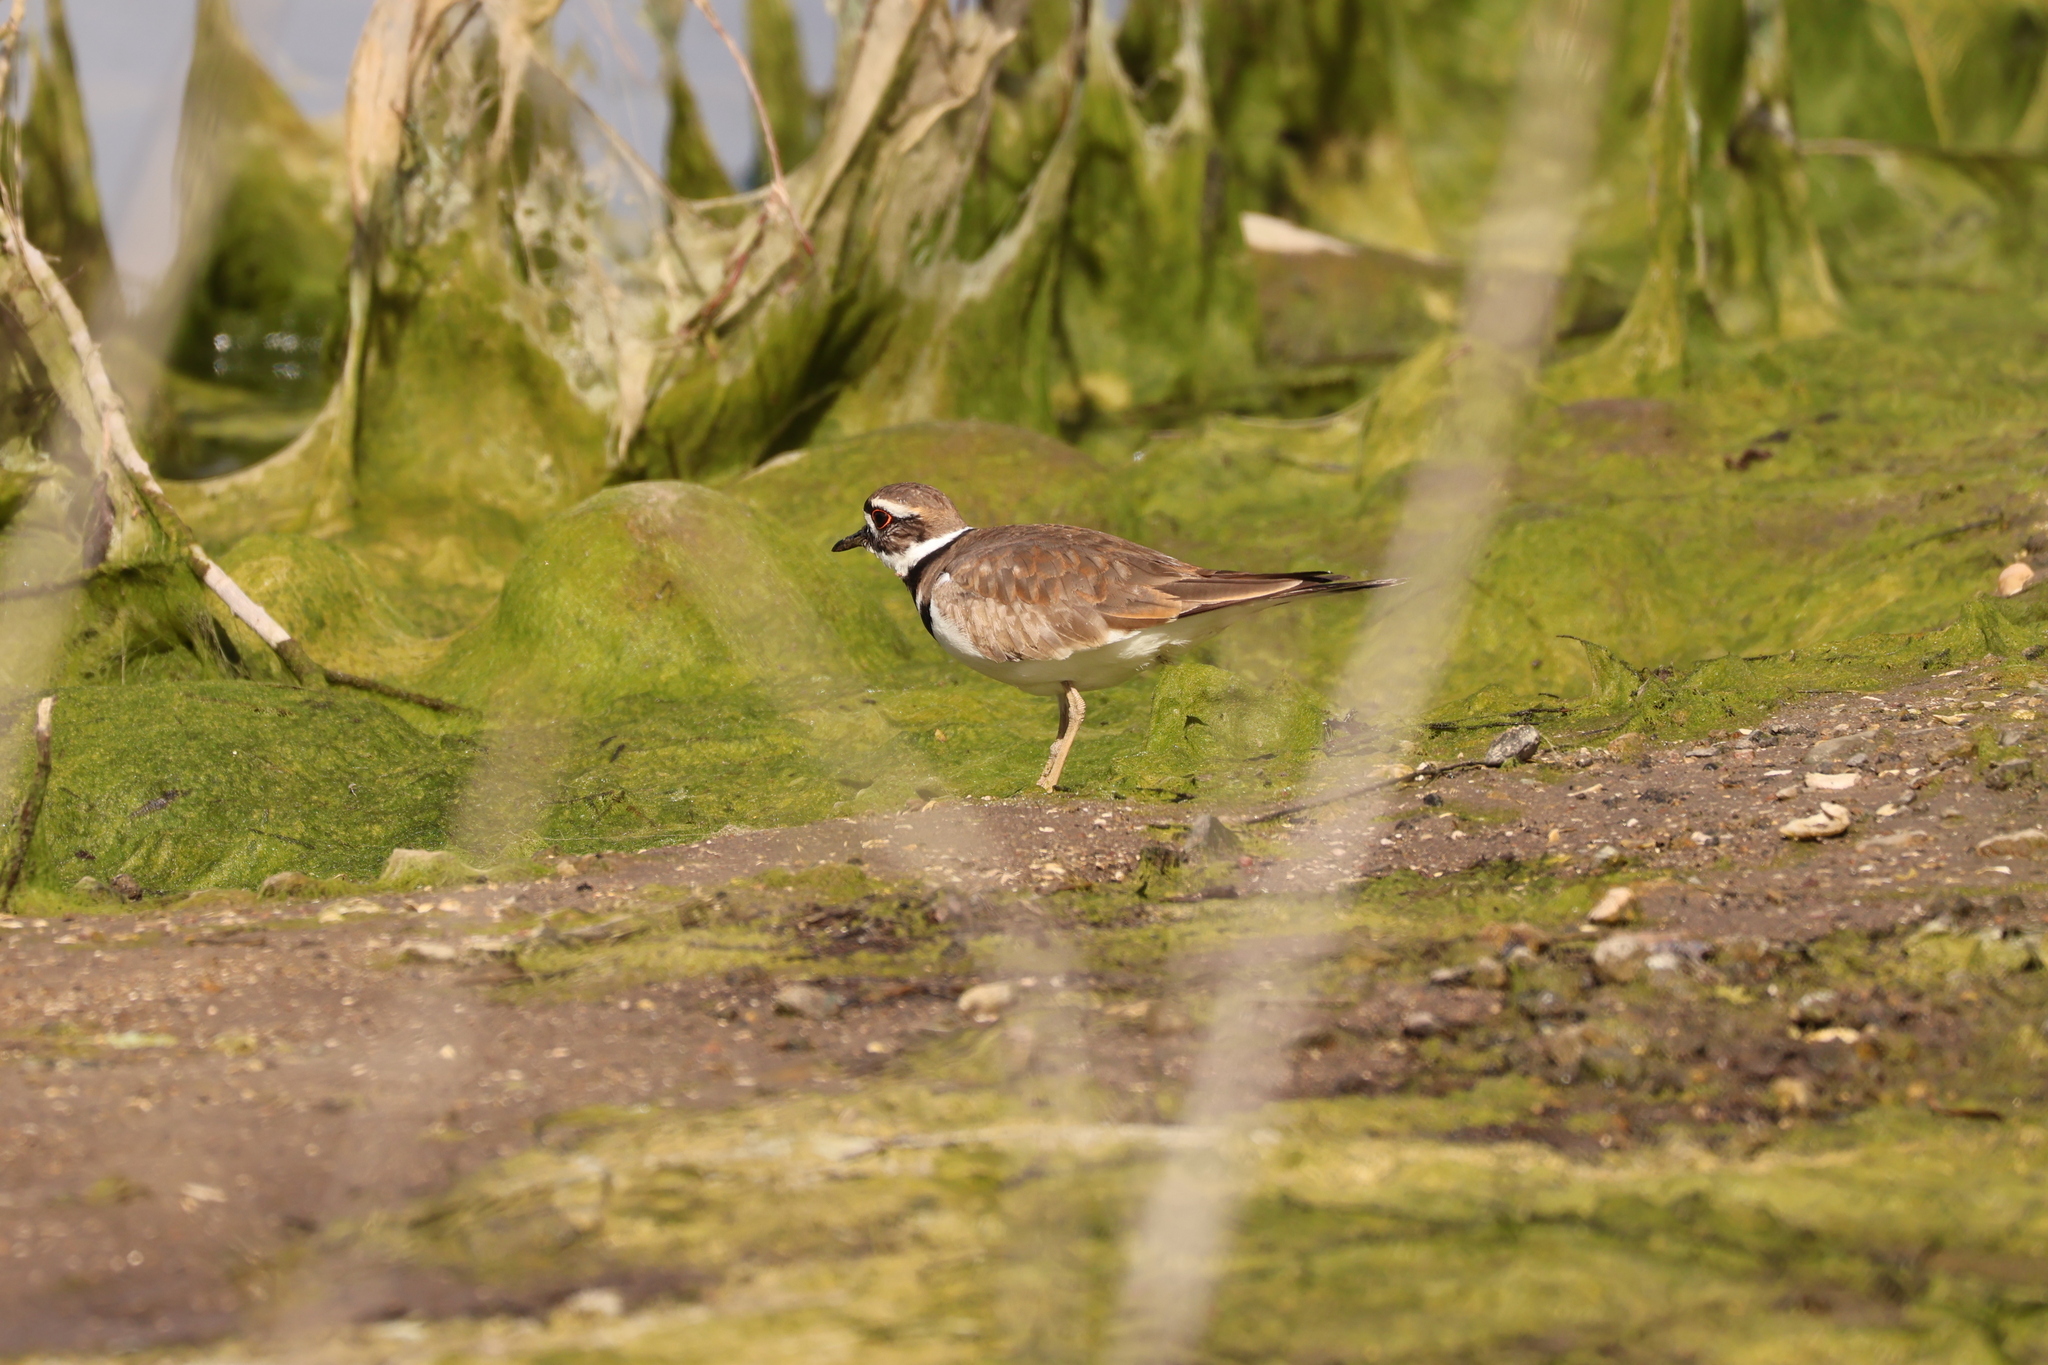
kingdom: Animalia
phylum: Chordata
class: Aves
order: Charadriiformes
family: Charadriidae
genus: Charadrius
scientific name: Charadrius vociferus
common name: Killdeer
